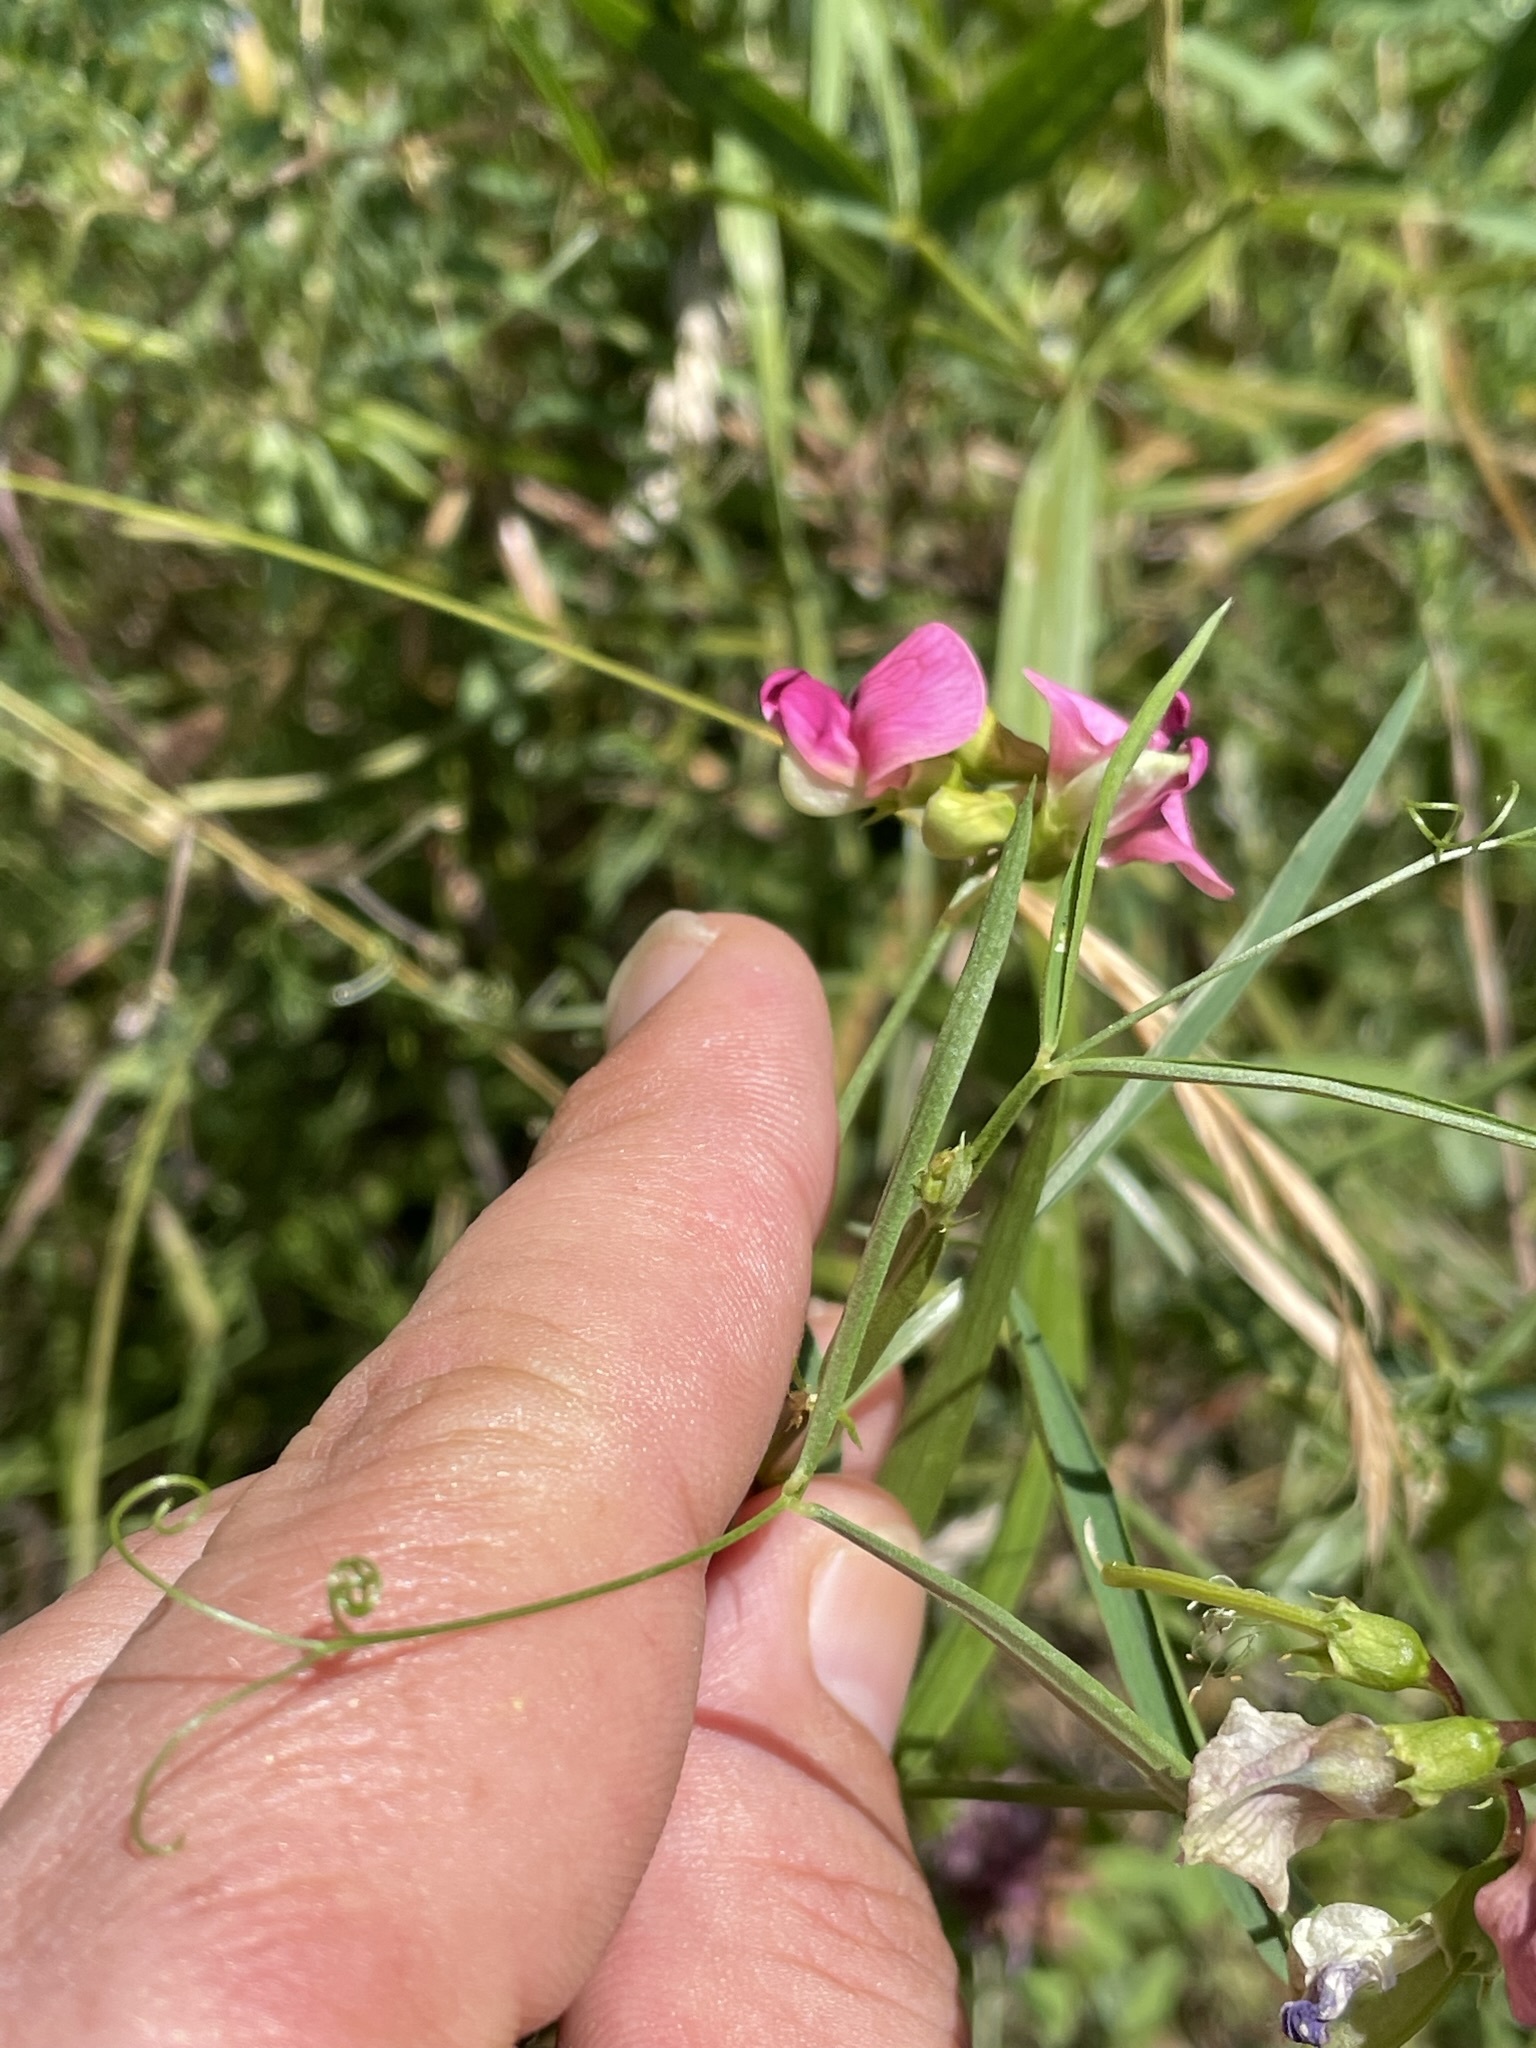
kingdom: Plantae
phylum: Tracheophyta
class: Magnoliopsida
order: Fabales
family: Fabaceae
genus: Lathyrus
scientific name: Lathyrus sylvestris
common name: Flat pea
